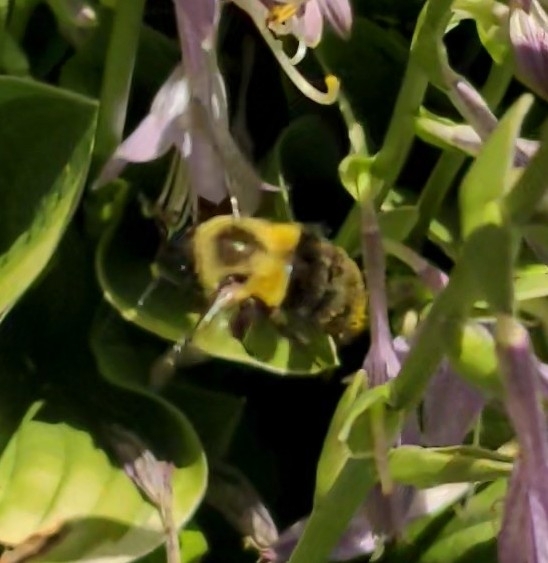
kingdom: Animalia
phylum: Arthropoda
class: Insecta
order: Hymenoptera
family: Apidae
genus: Bombus
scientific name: Bombus impatiens
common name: Common eastern bumble bee
